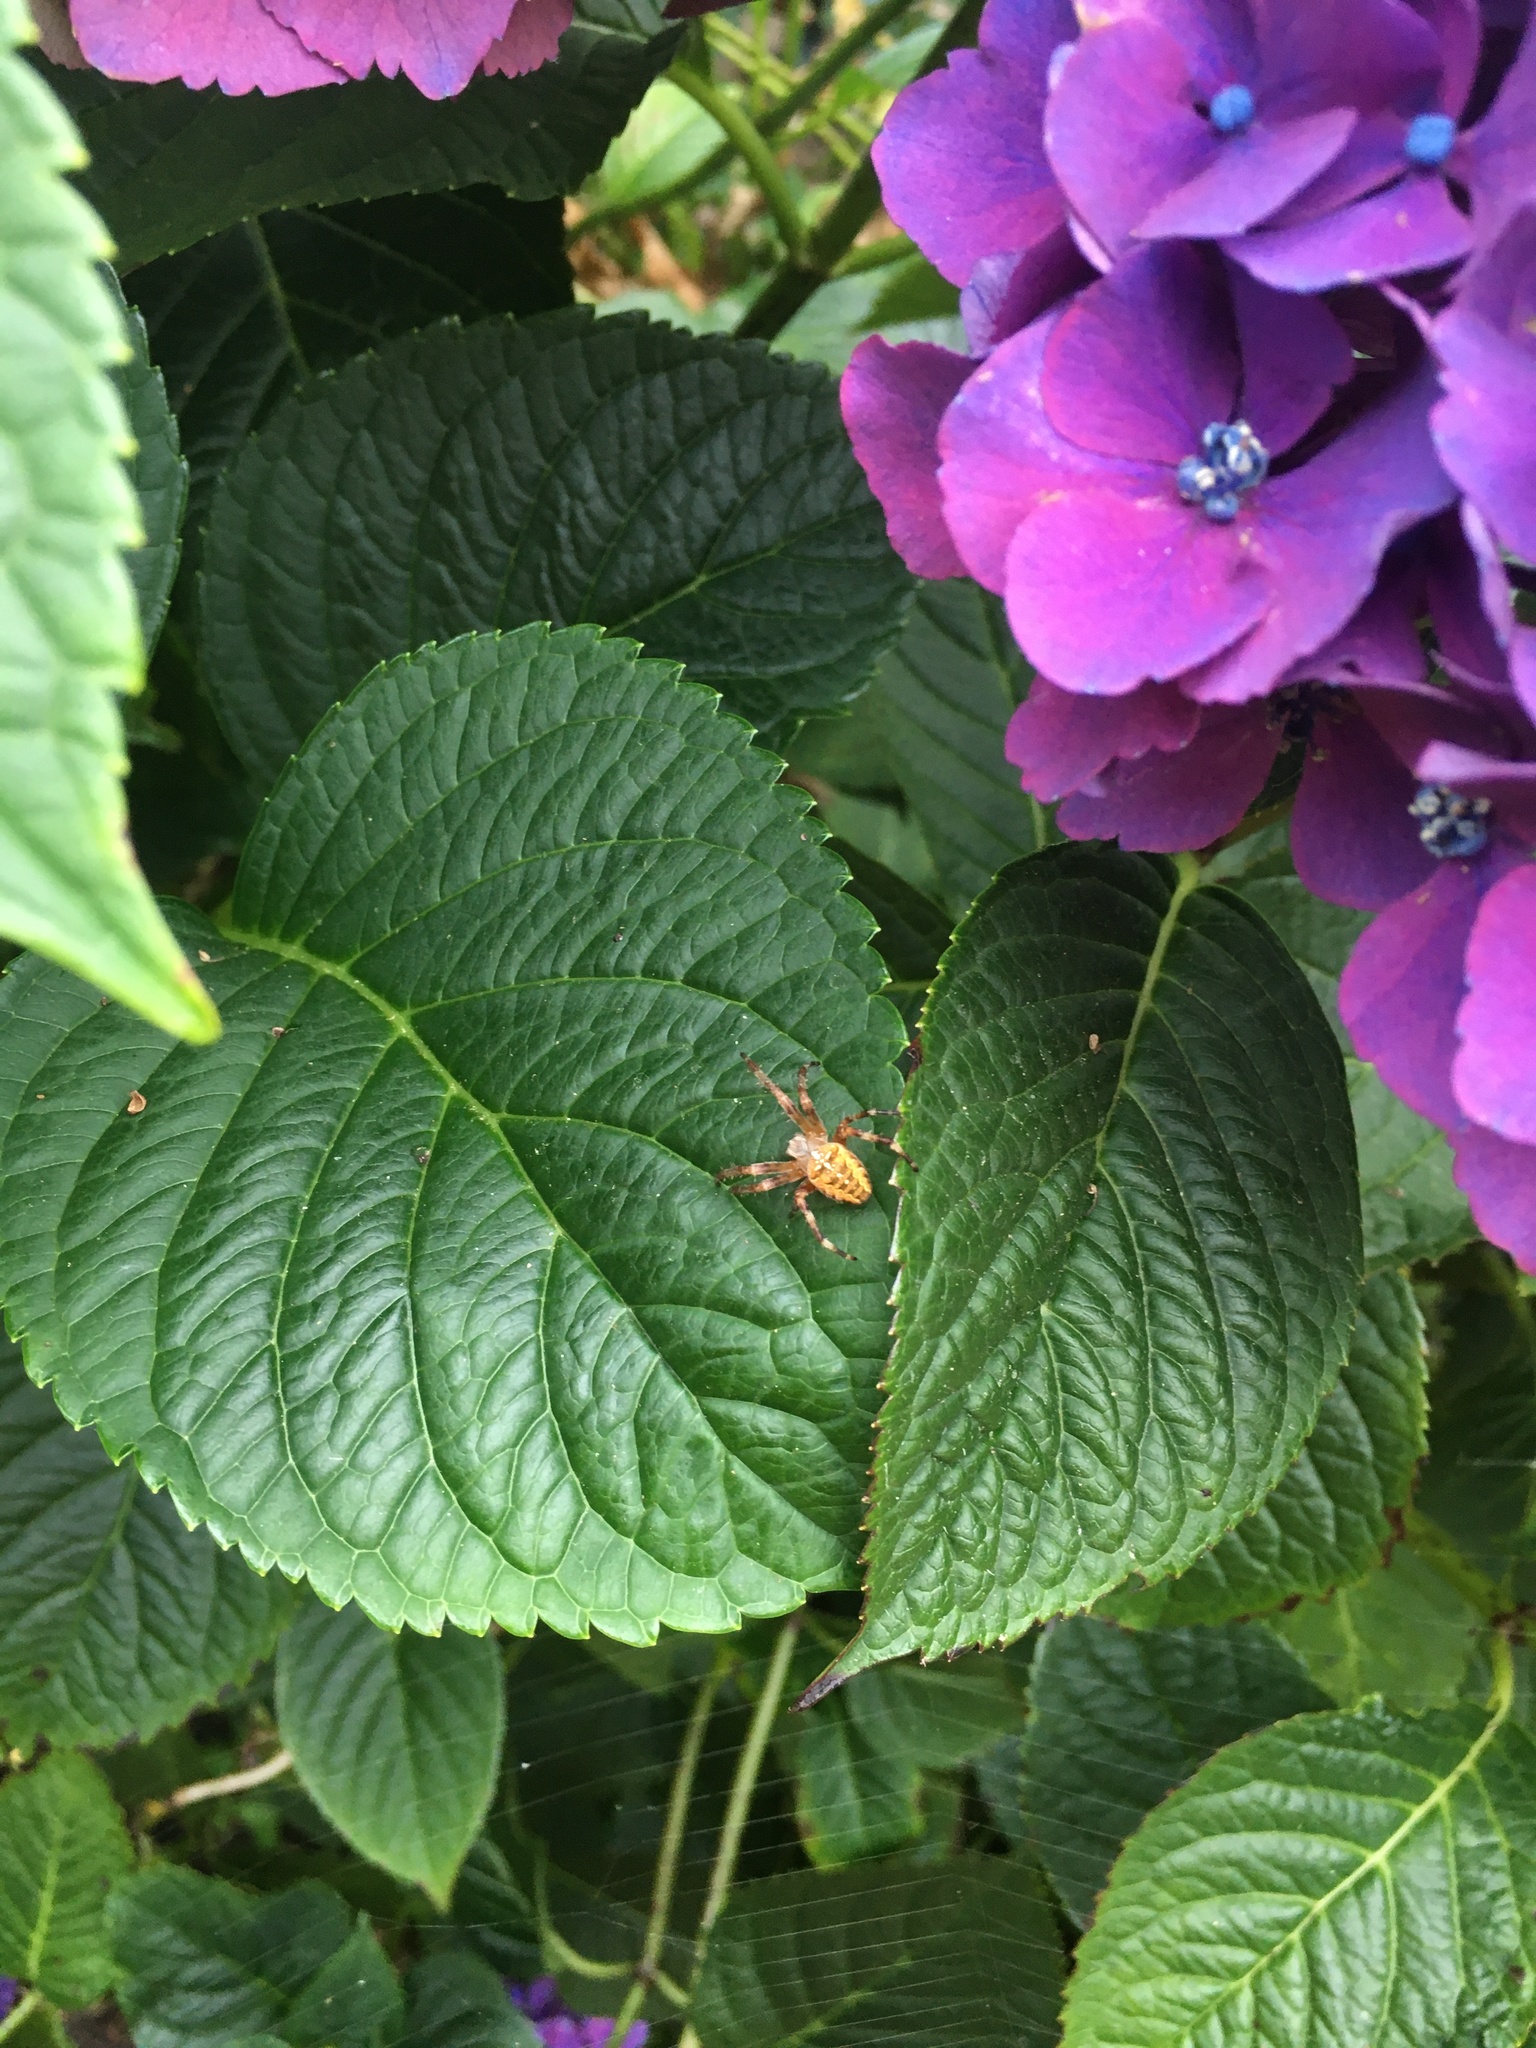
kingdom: Animalia
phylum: Arthropoda
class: Arachnida
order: Araneae
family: Araneidae
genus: Araneus
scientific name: Araneus diadematus
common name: Cross orbweaver
